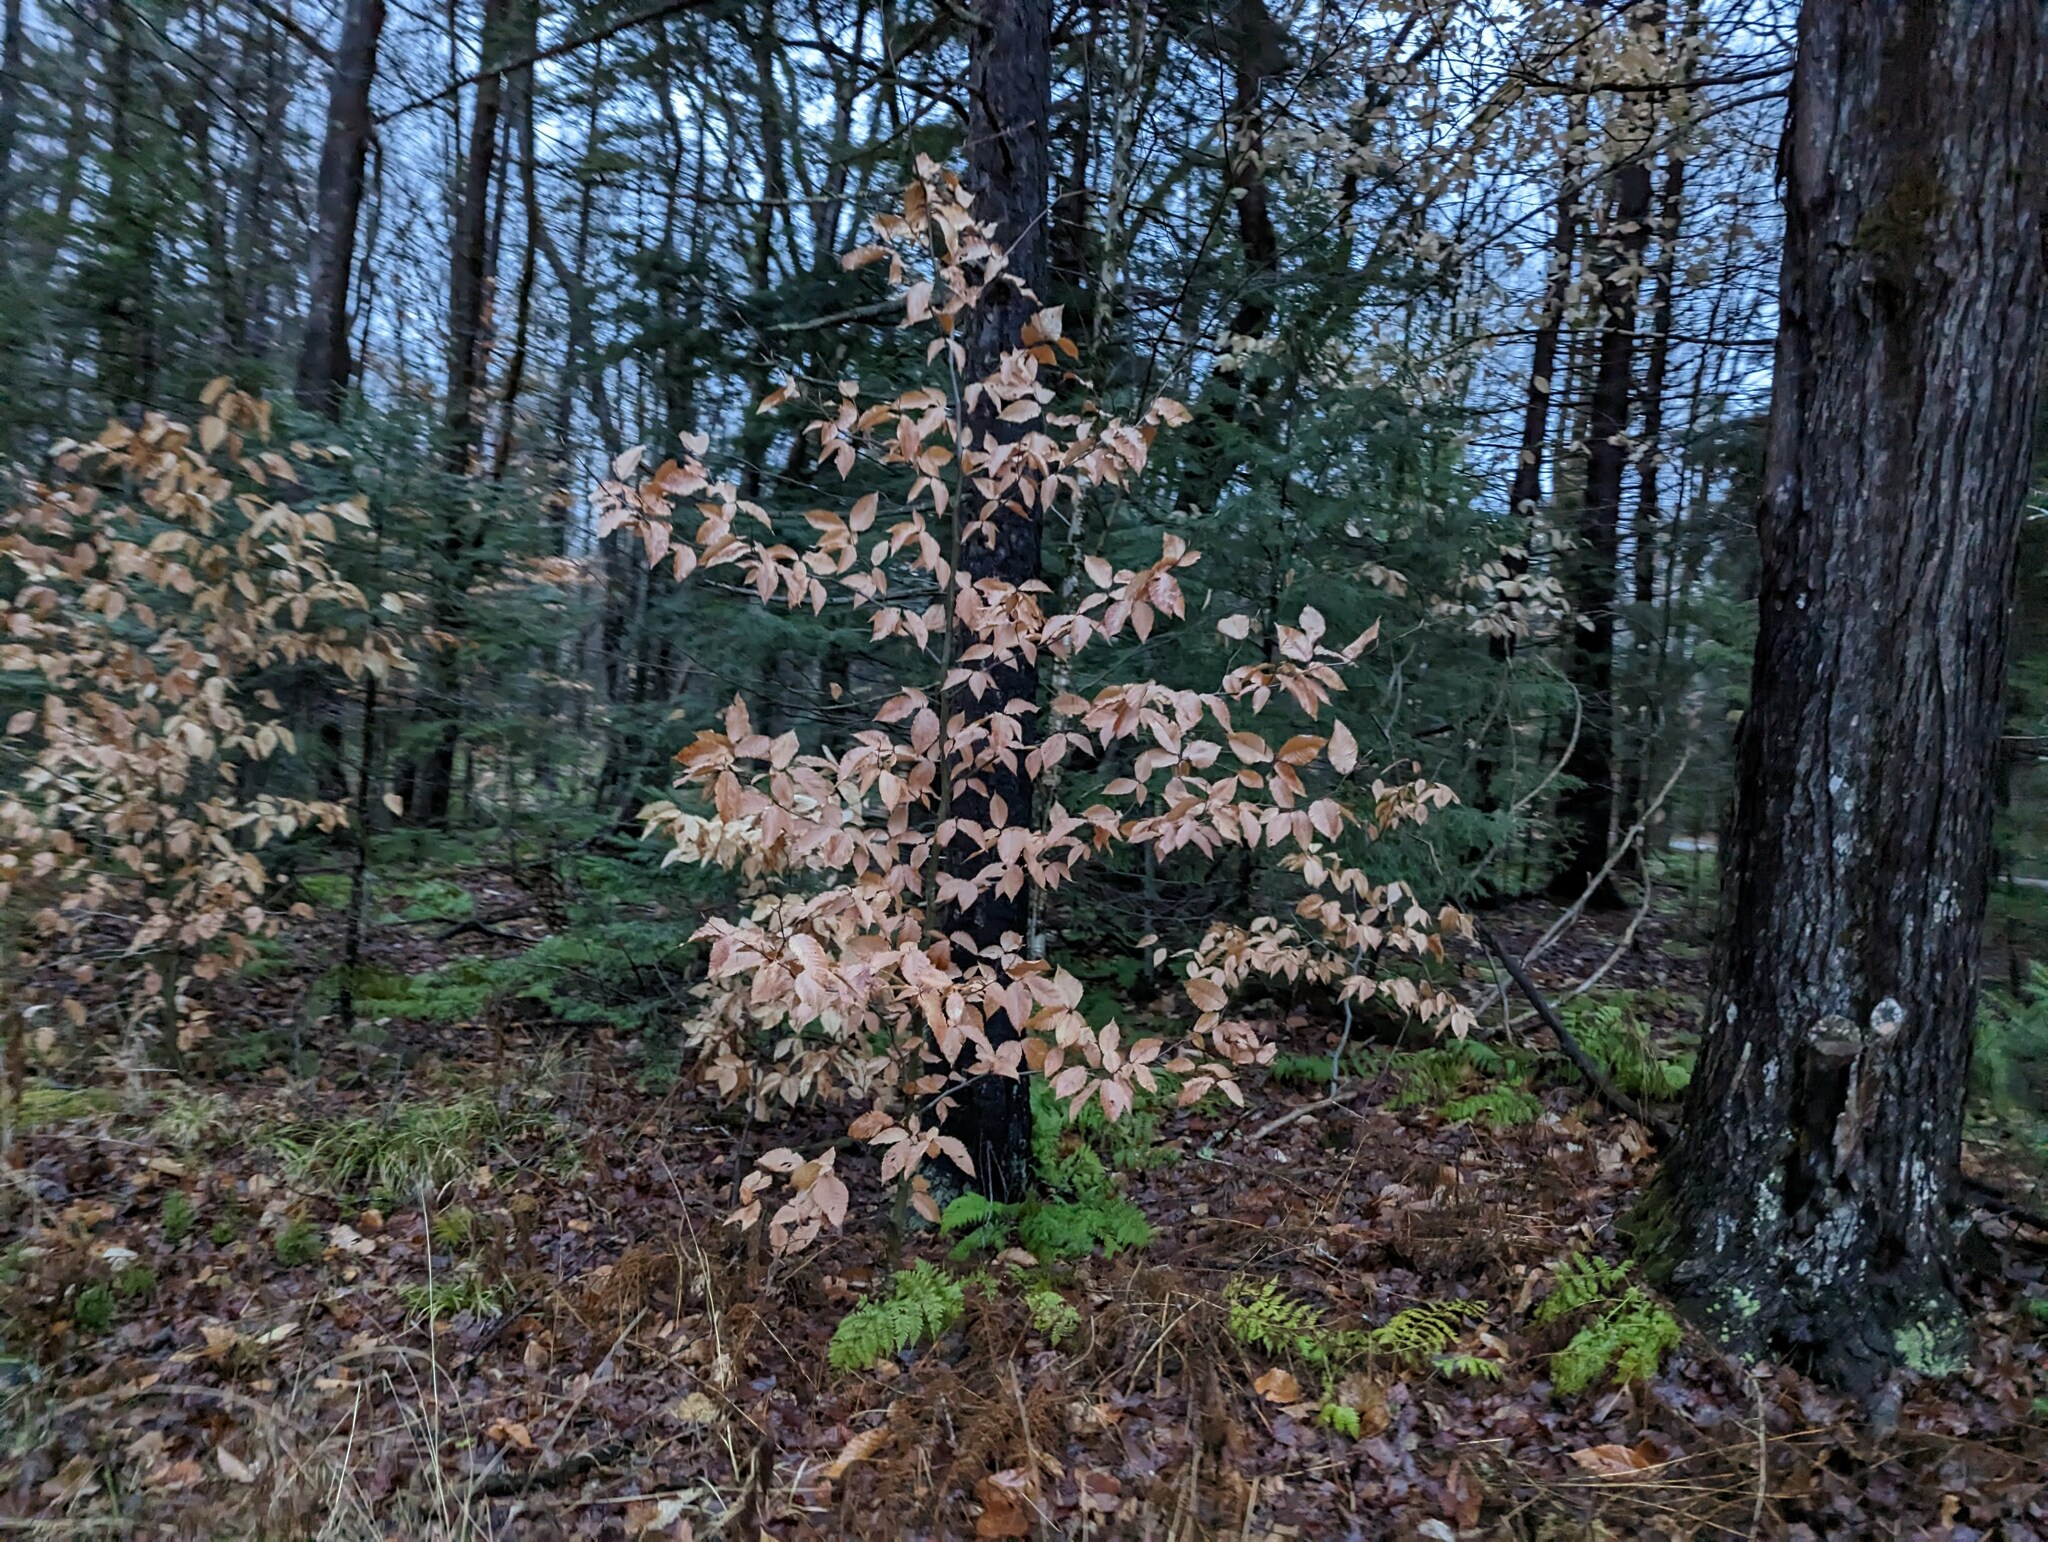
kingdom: Plantae
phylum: Tracheophyta
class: Magnoliopsida
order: Fagales
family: Fagaceae
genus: Fagus
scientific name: Fagus grandifolia
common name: American beech
